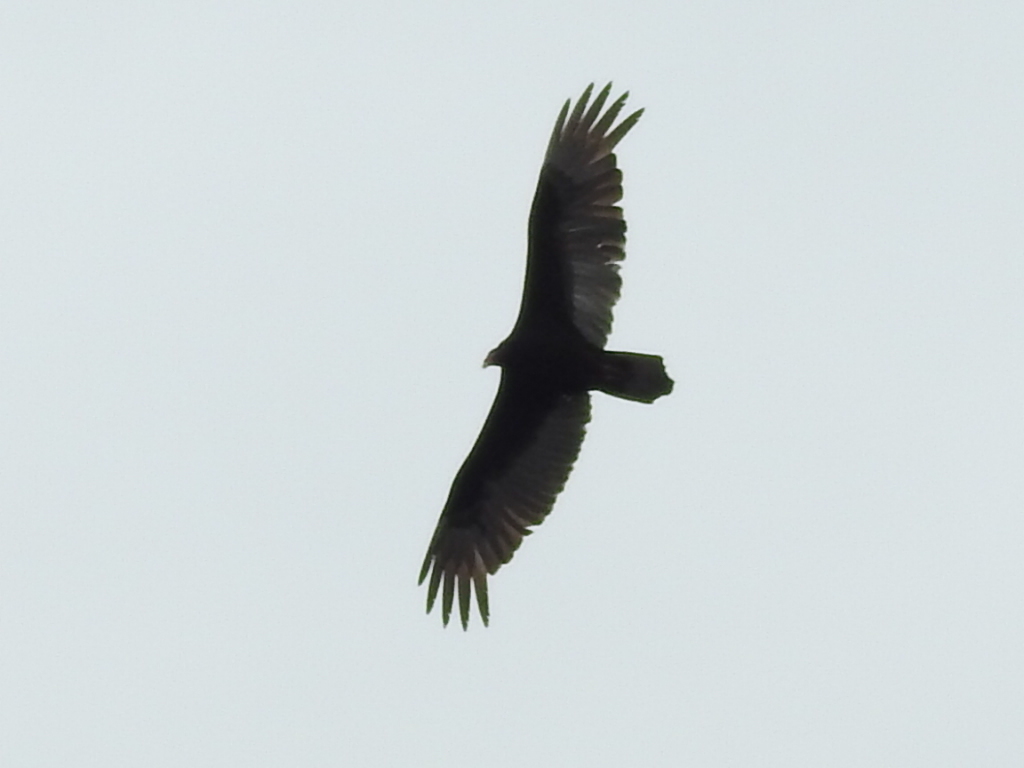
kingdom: Animalia
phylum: Chordata
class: Aves
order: Accipitriformes
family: Cathartidae
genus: Cathartes
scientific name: Cathartes aura
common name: Turkey vulture
